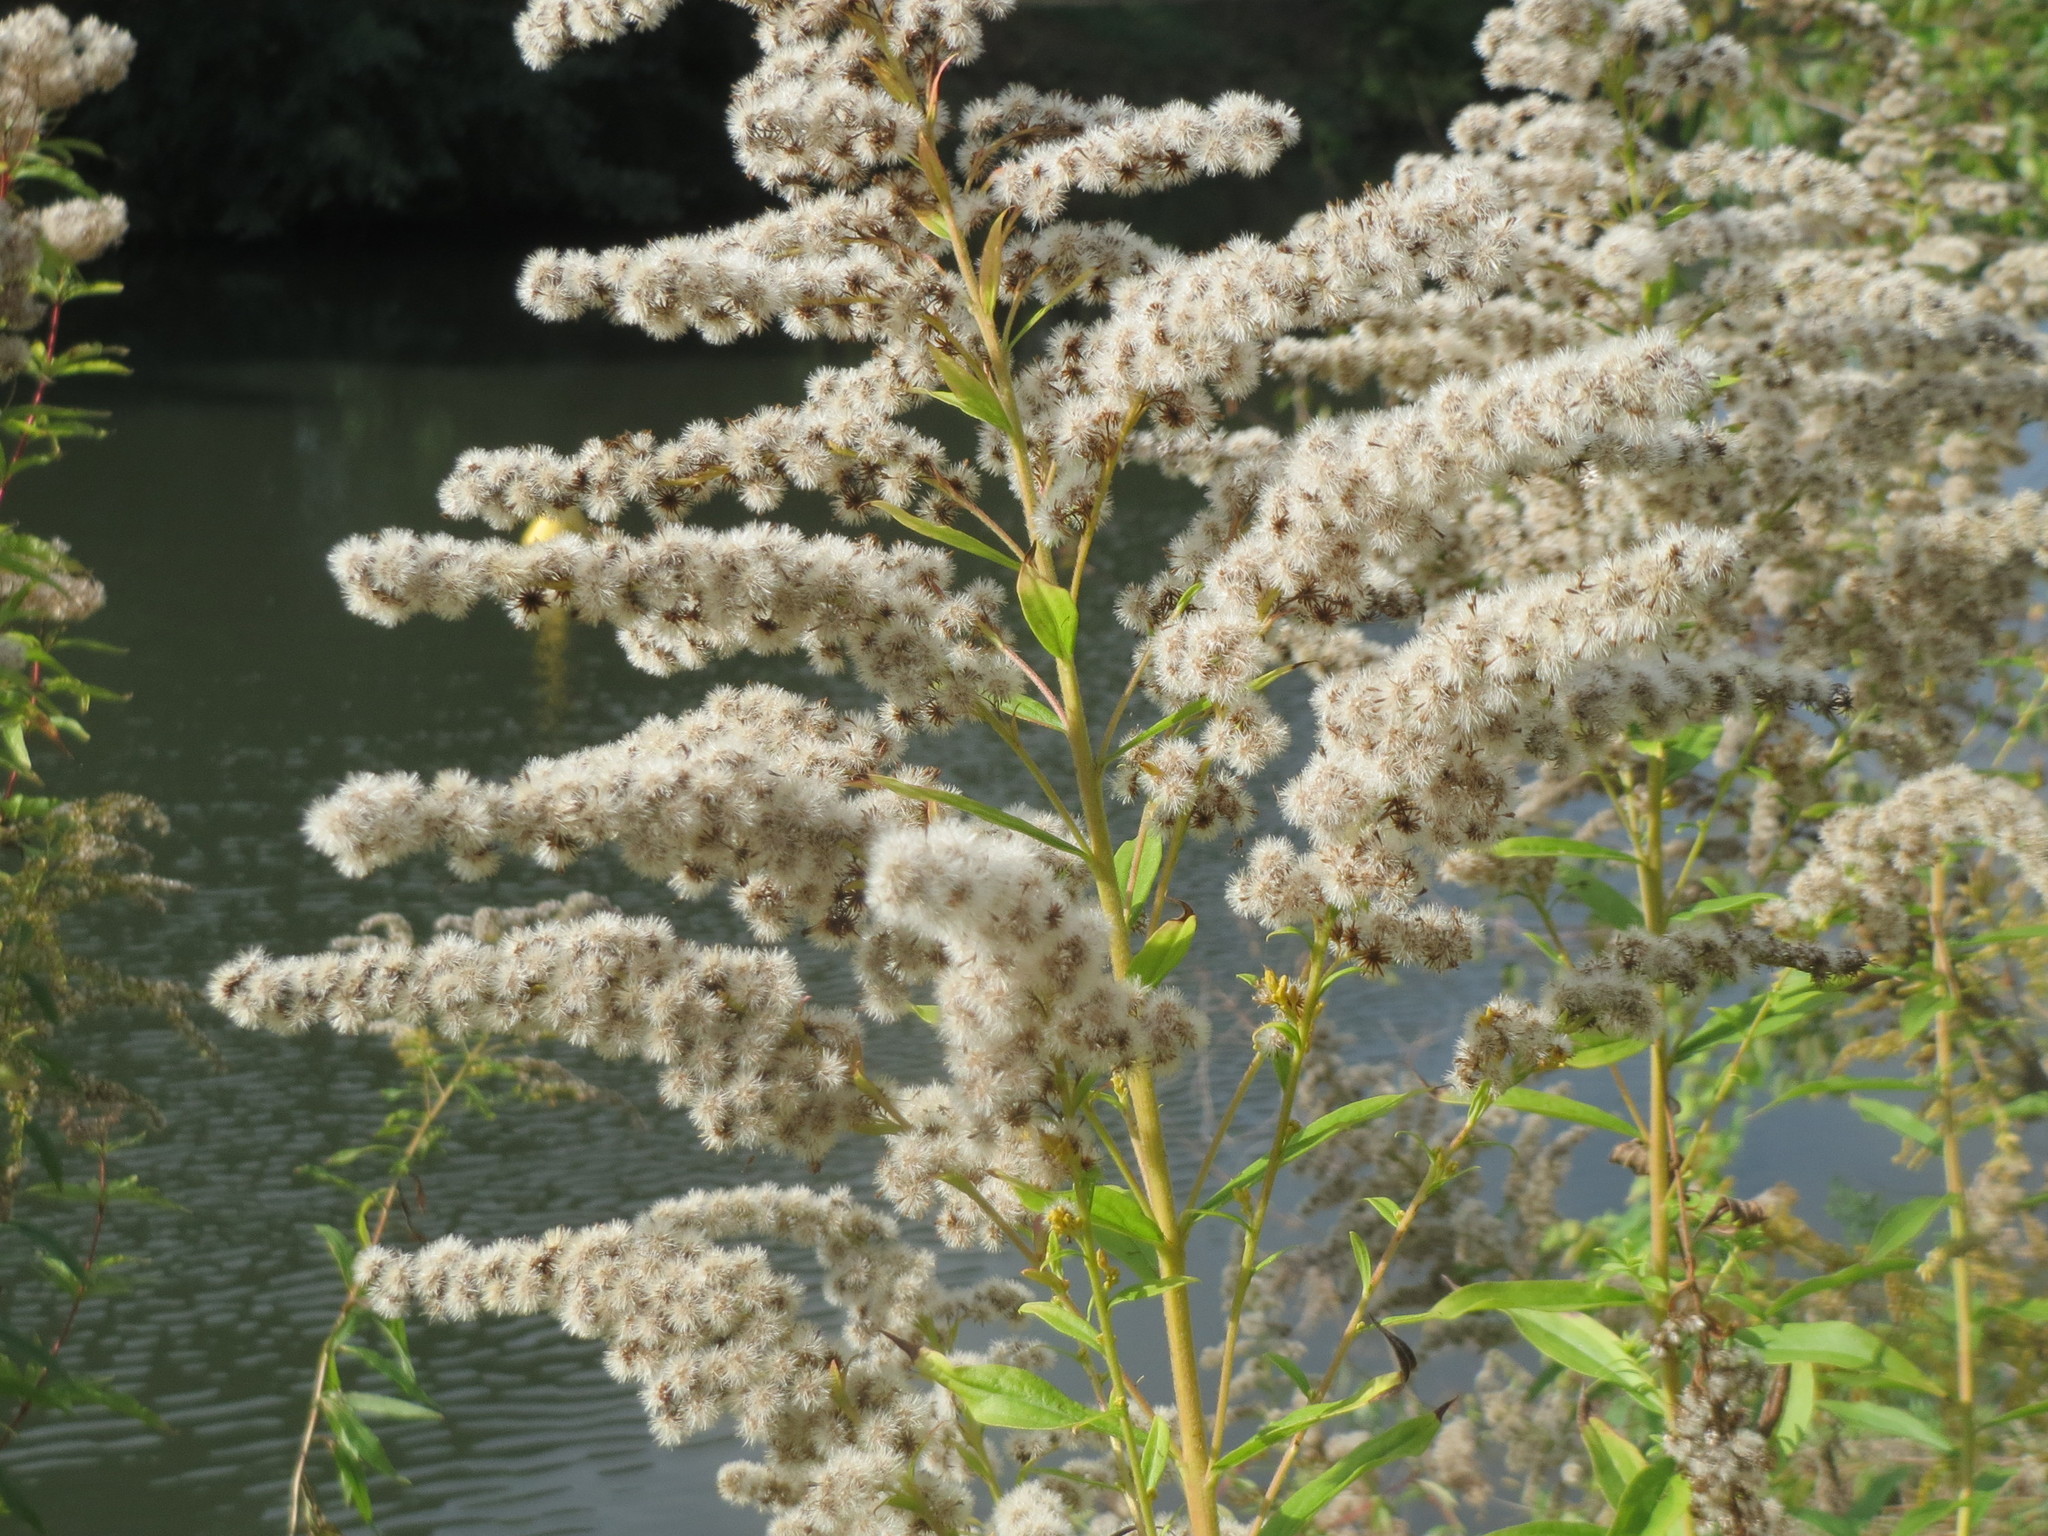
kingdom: Plantae
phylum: Tracheophyta
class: Magnoliopsida
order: Asterales
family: Asteraceae
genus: Solidago
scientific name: Solidago canadensis
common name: Canada goldenrod
